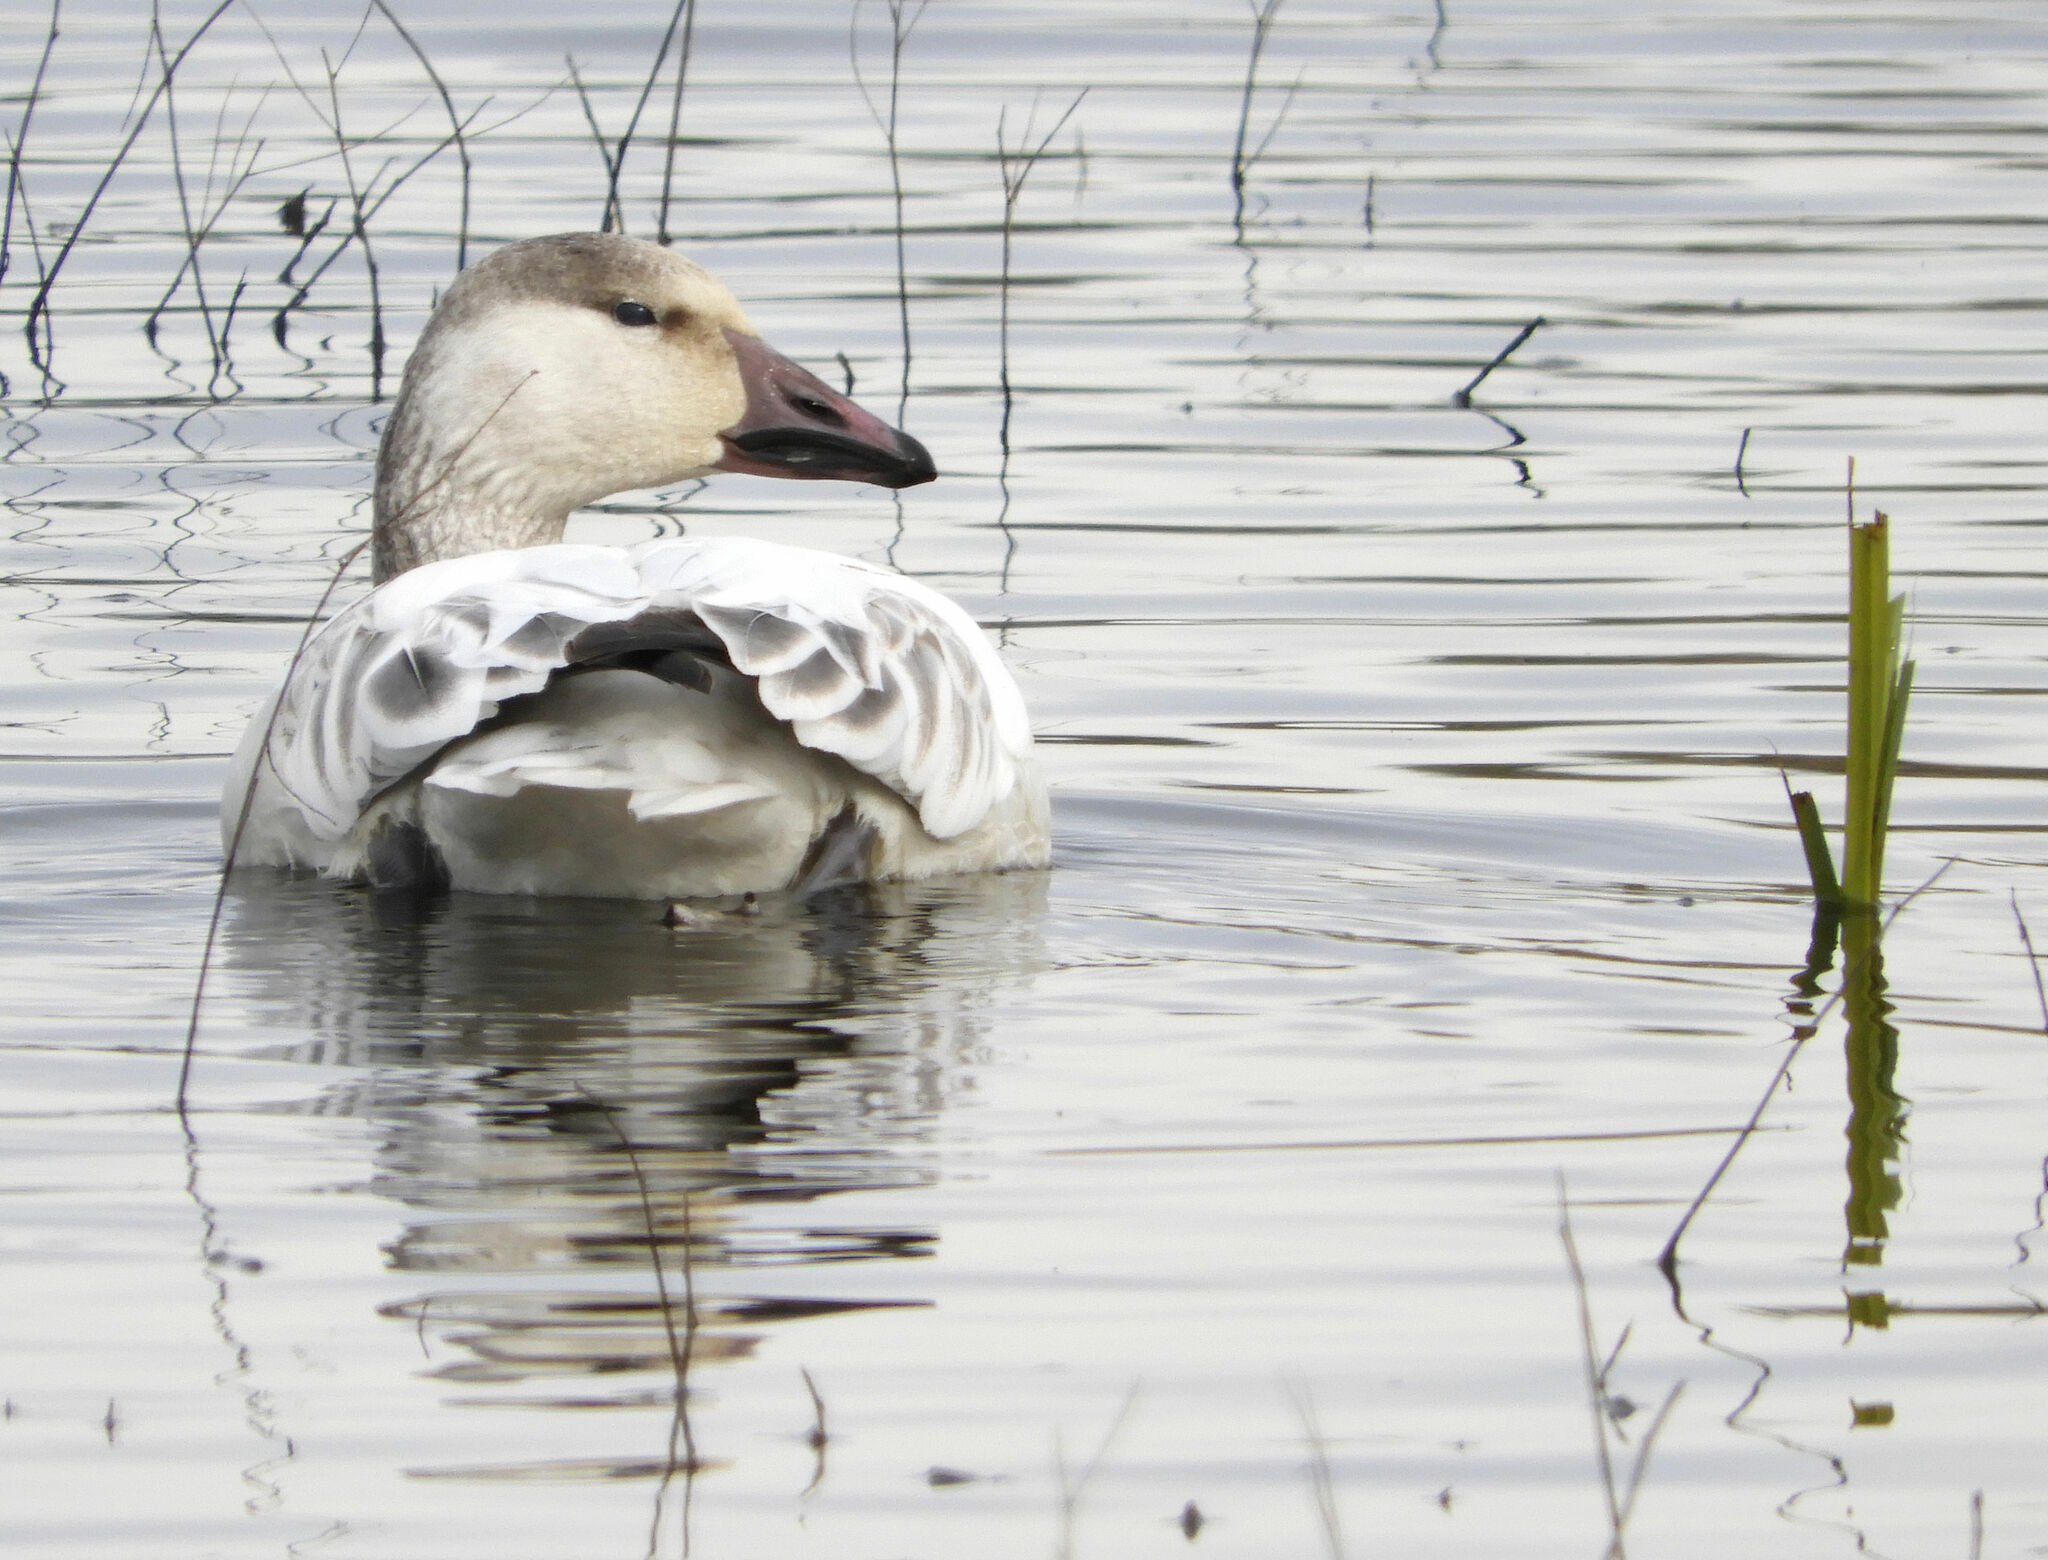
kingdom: Animalia
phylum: Chordata
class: Aves
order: Anseriformes
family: Anatidae
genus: Anser
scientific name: Anser caerulescens
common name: Snow goose
